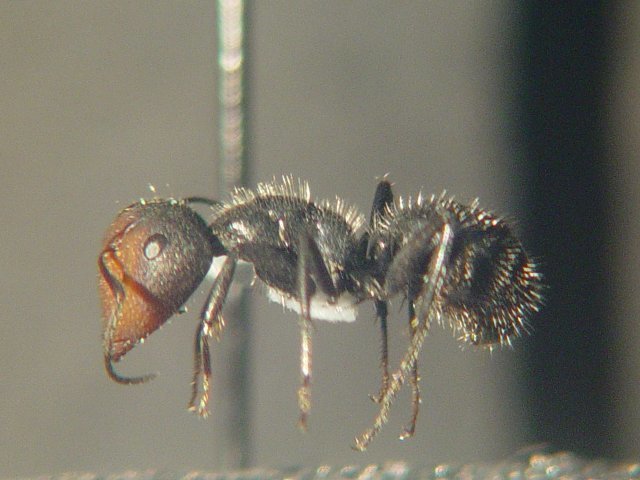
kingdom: Animalia
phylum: Arthropoda
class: Insecta
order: Hymenoptera
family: Formicidae
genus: Camponotus
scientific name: Camponotus ulcerosus
